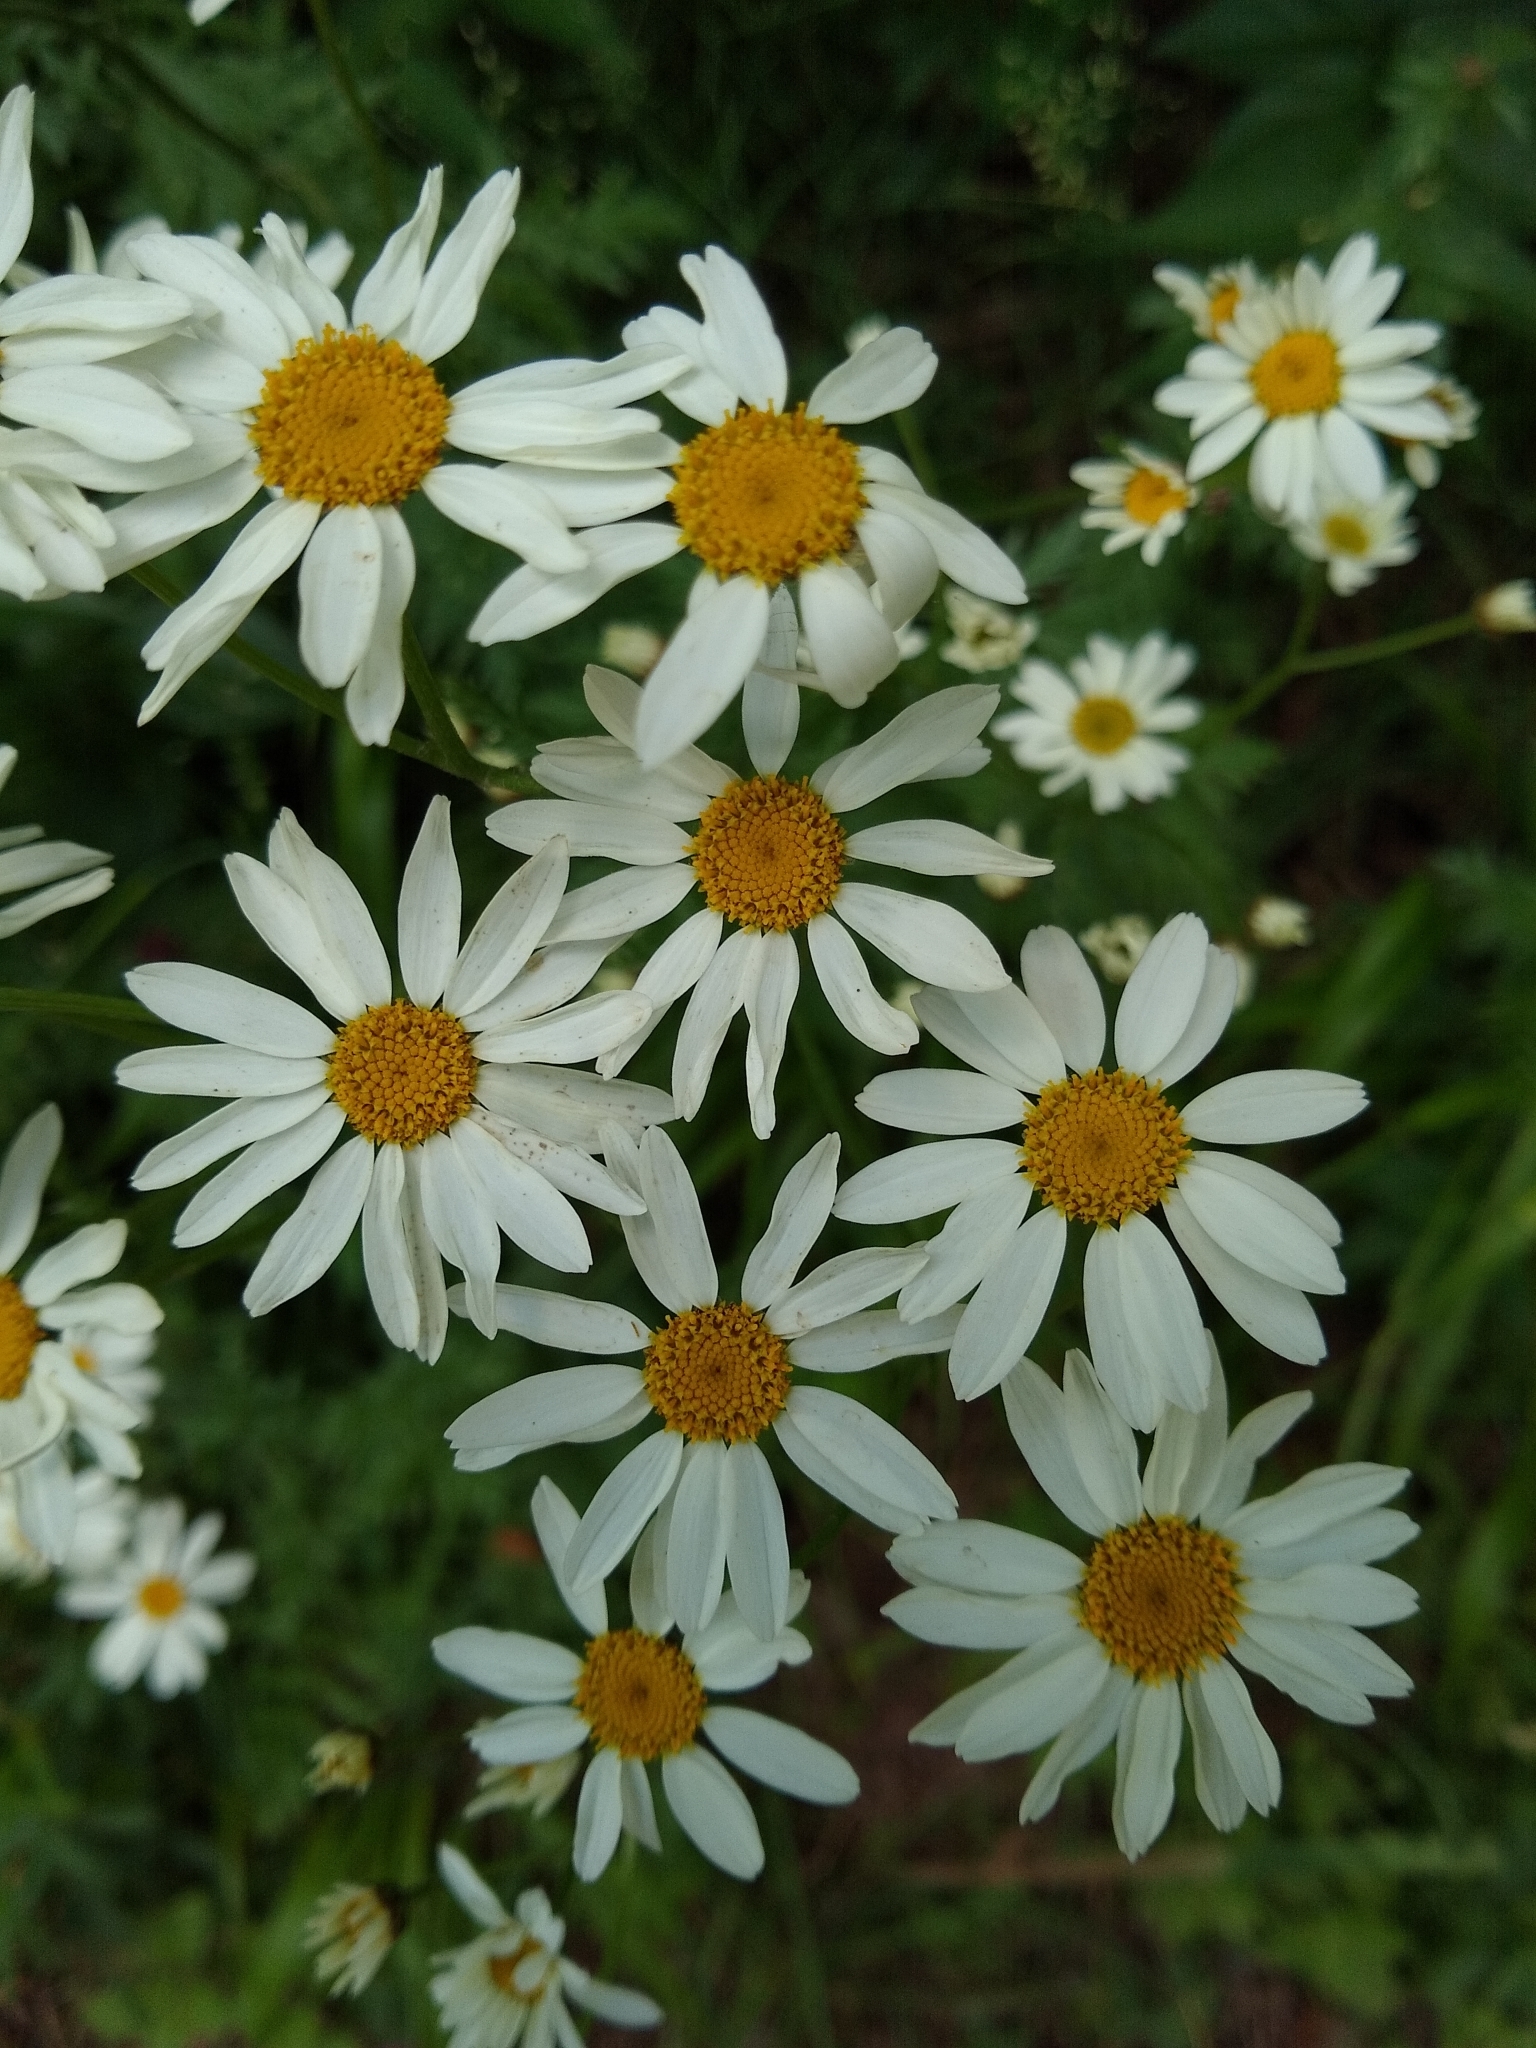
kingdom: Plantae
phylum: Tracheophyta
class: Magnoliopsida
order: Asterales
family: Asteraceae
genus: Tanacetum
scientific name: Tanacetum corymbosum
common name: Scentless feverfew
